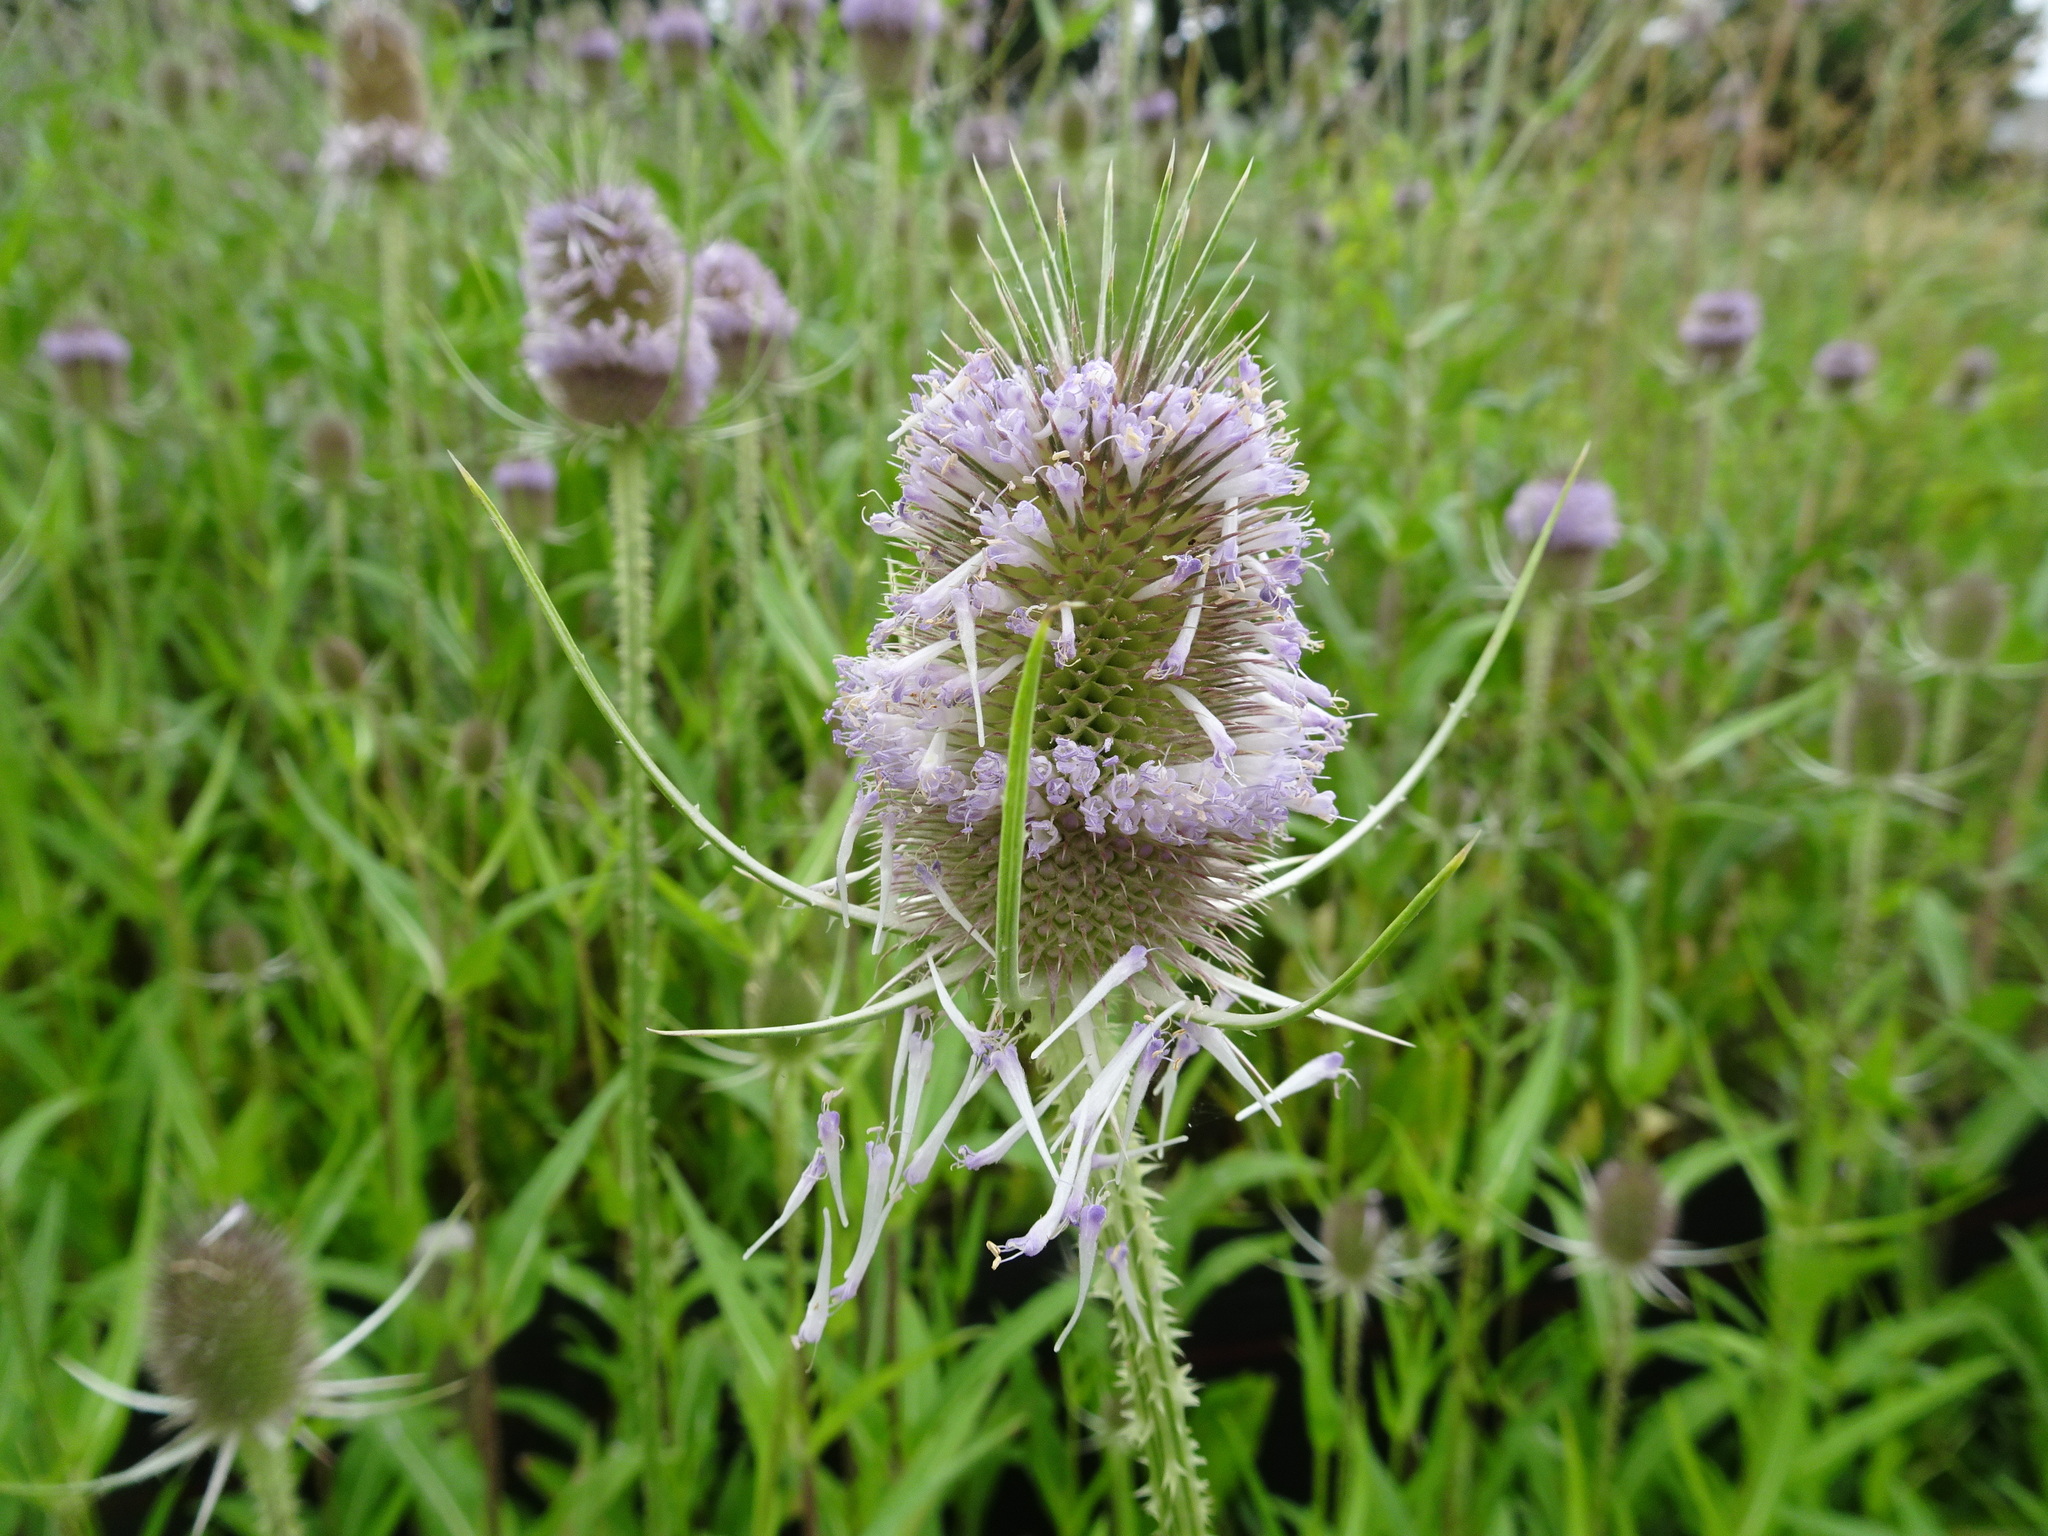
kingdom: Plantae
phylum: Tracheophyta
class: Magnoliopsida
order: Dipsacales
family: Caprifoliaceae
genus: Dipsacus
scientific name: Dipsacus fullonum
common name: Teasel
